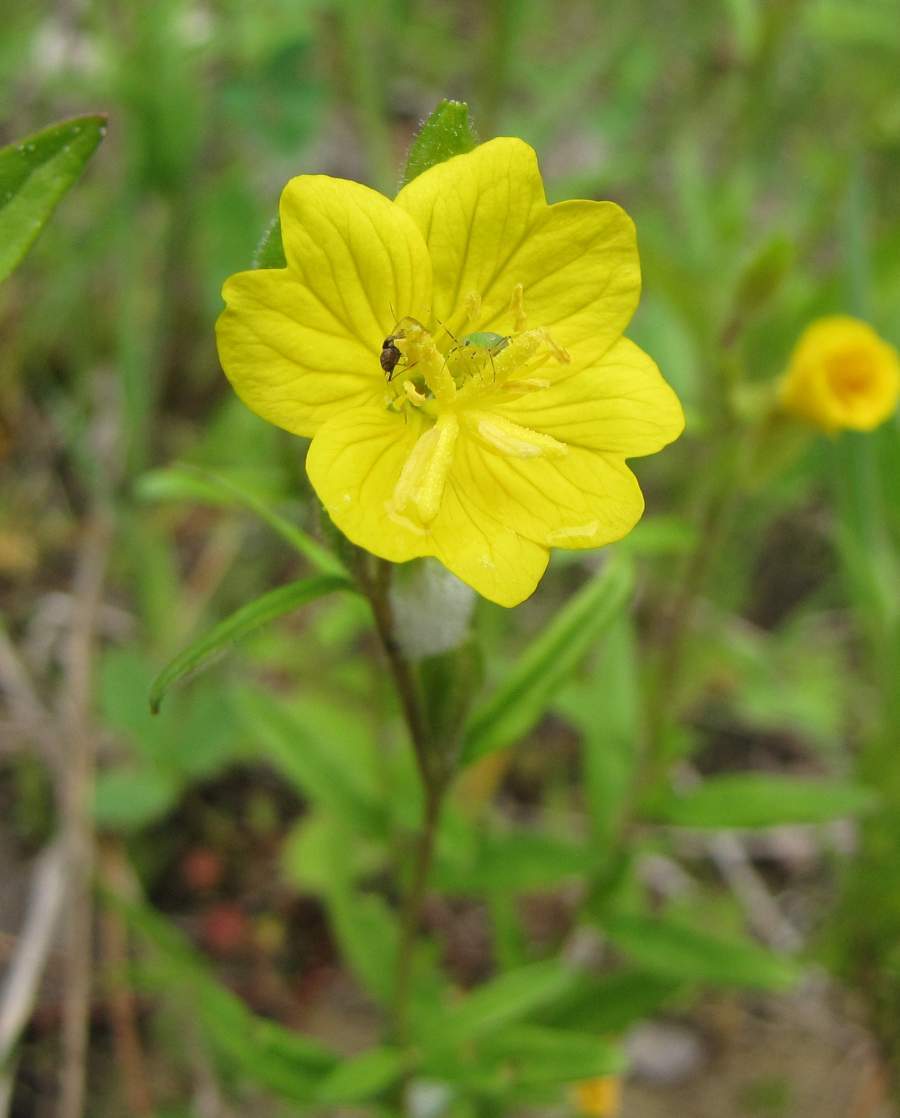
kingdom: Plantae
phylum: Tracheophyta
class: Magnoliopsida
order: Myrtales
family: Onagraceae
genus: Oenothera
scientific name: Oenothera perennis
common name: Small sundrops
